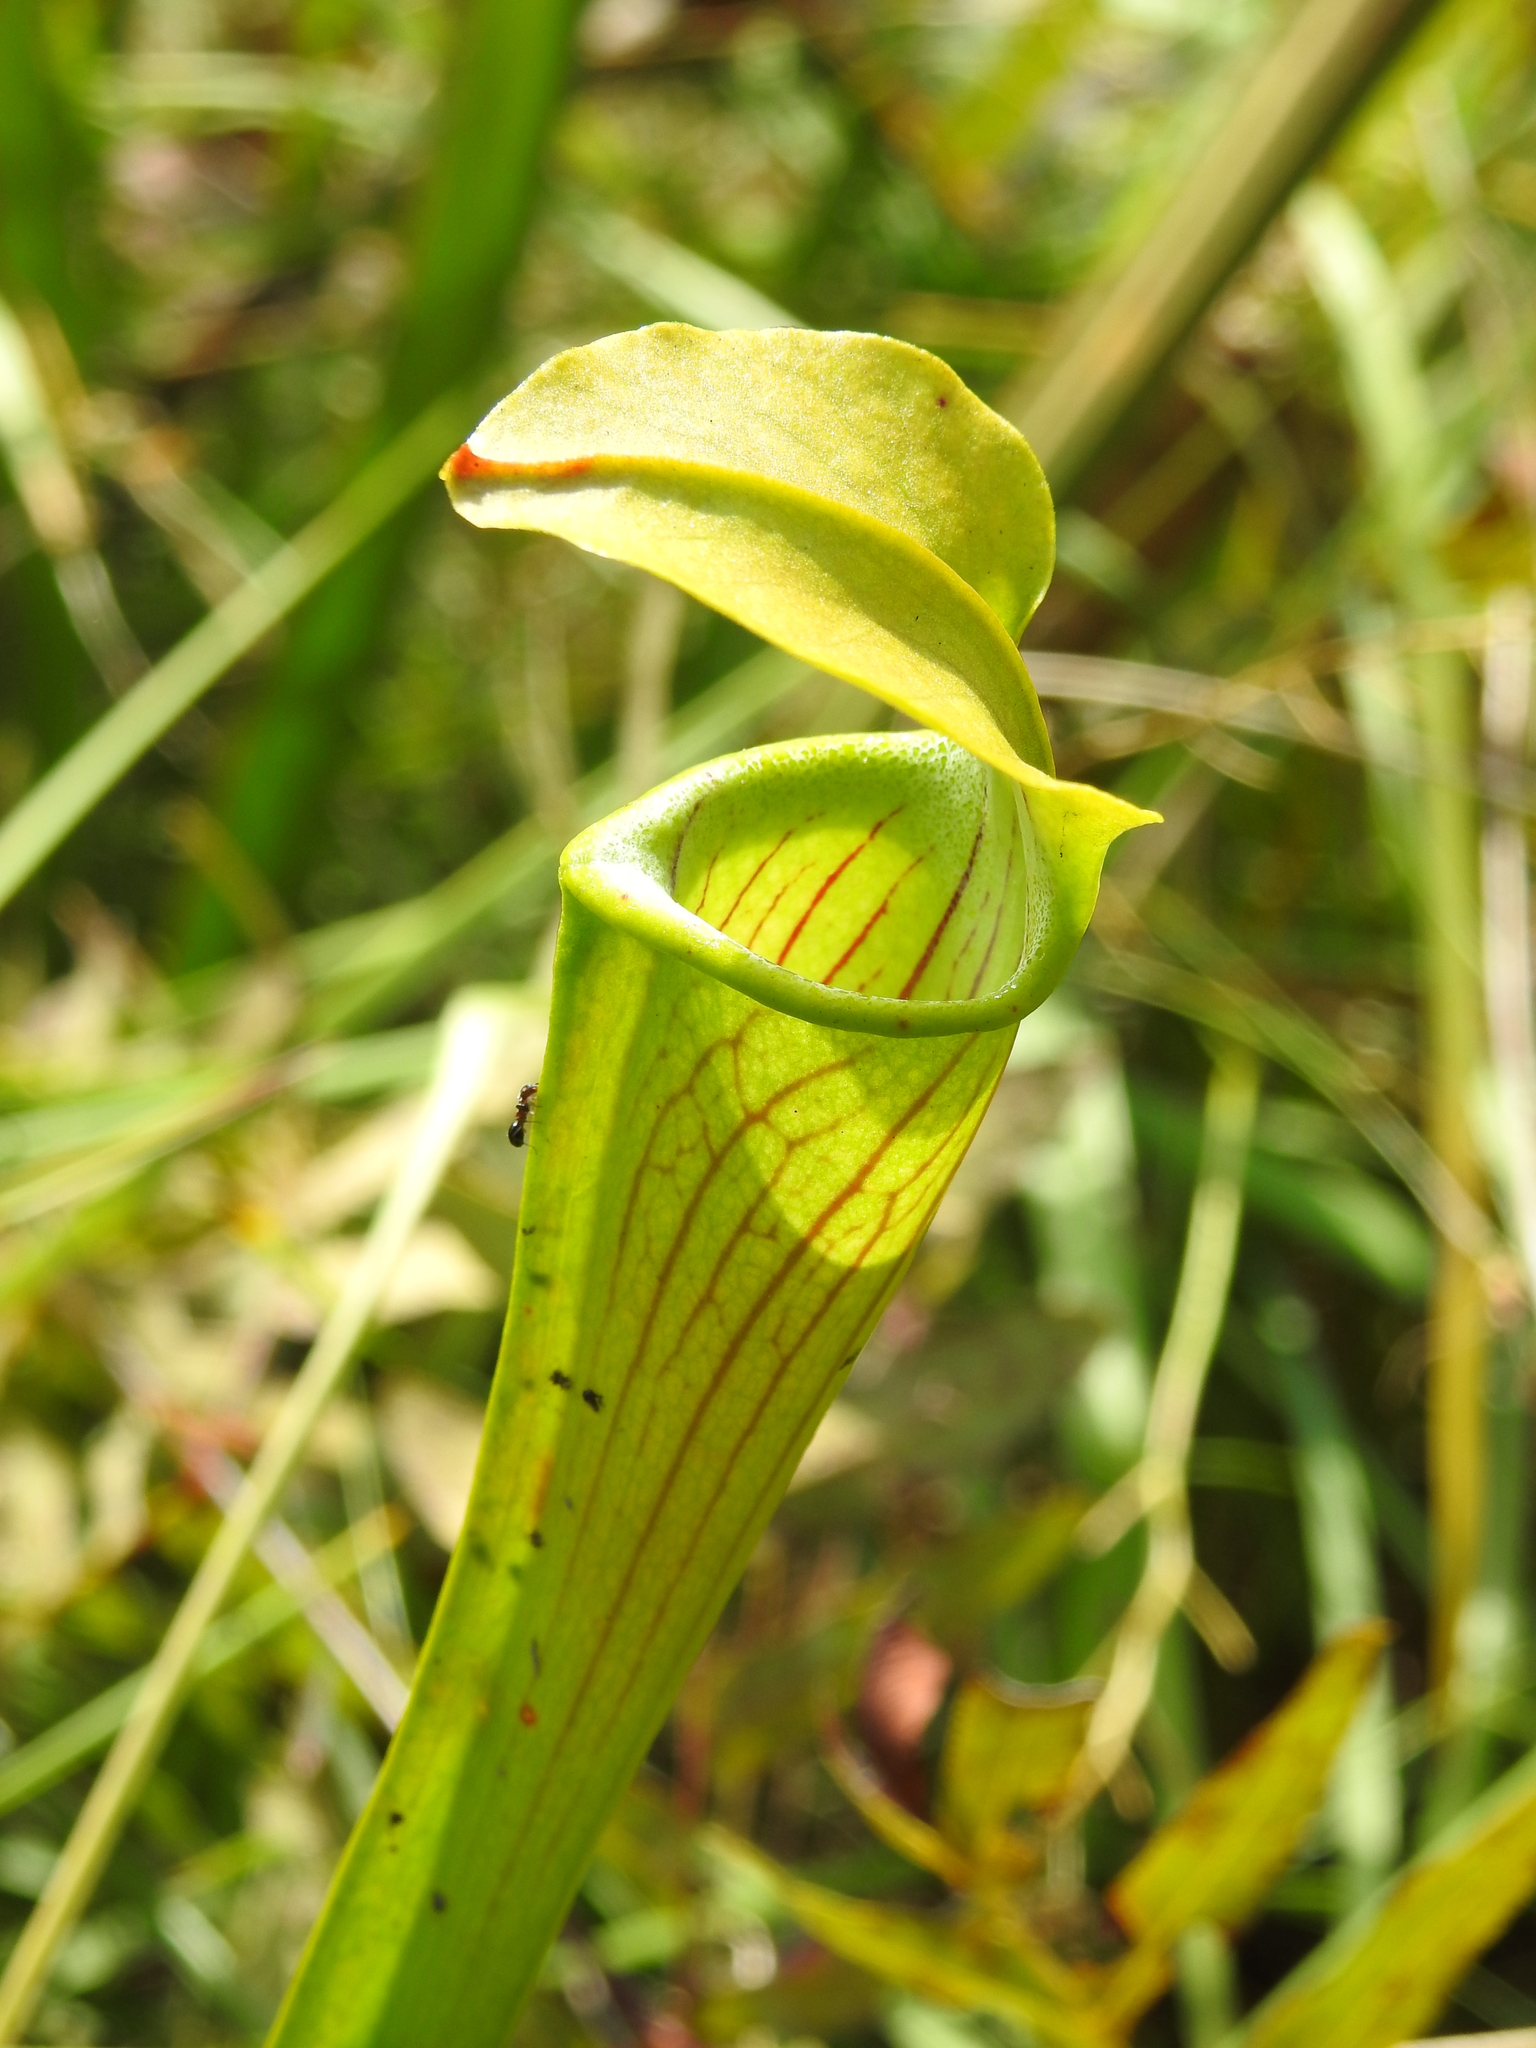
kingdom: Plantae
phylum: Tracheophyta
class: Magnoliopsida
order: Ericales
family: Sarraceniaceae
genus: Sarracenia
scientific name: Sarracenia alata
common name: Yellow trumpets
